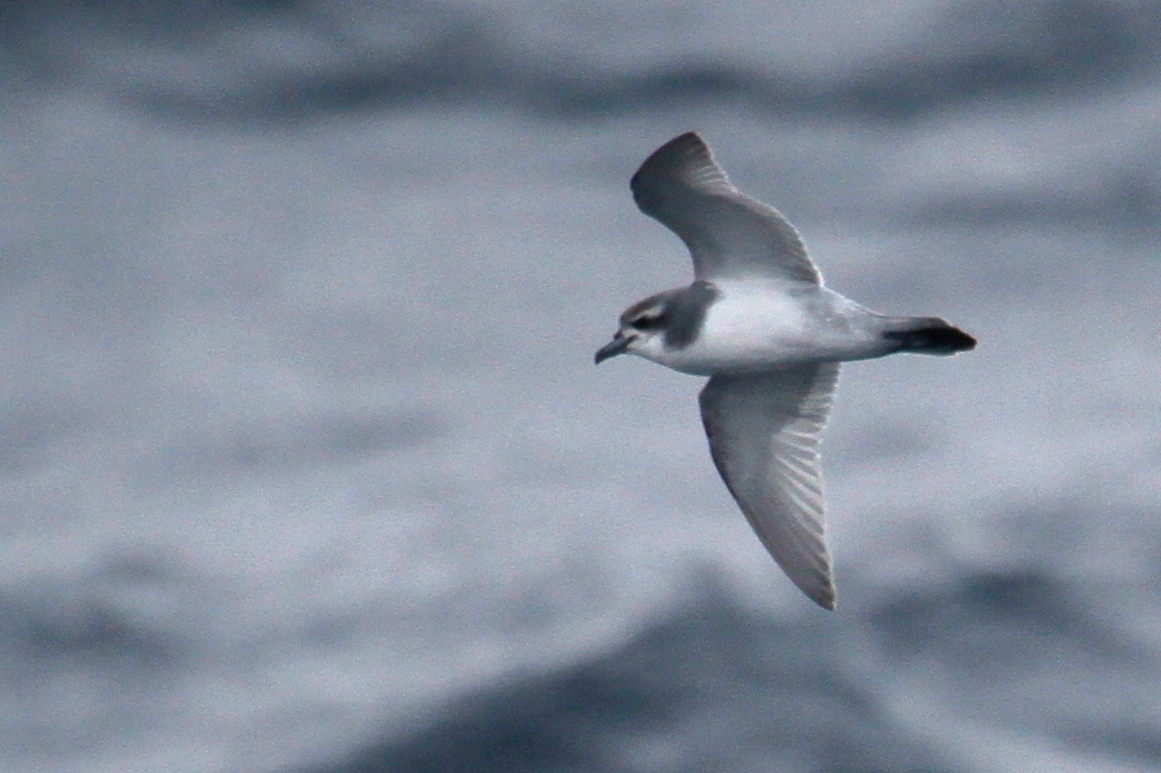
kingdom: Animalia
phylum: Chordata
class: Aves
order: Procellariiformes
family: Procellariidae
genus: Pachyptila
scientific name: Pachyptila desolata
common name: Antarctic prion
